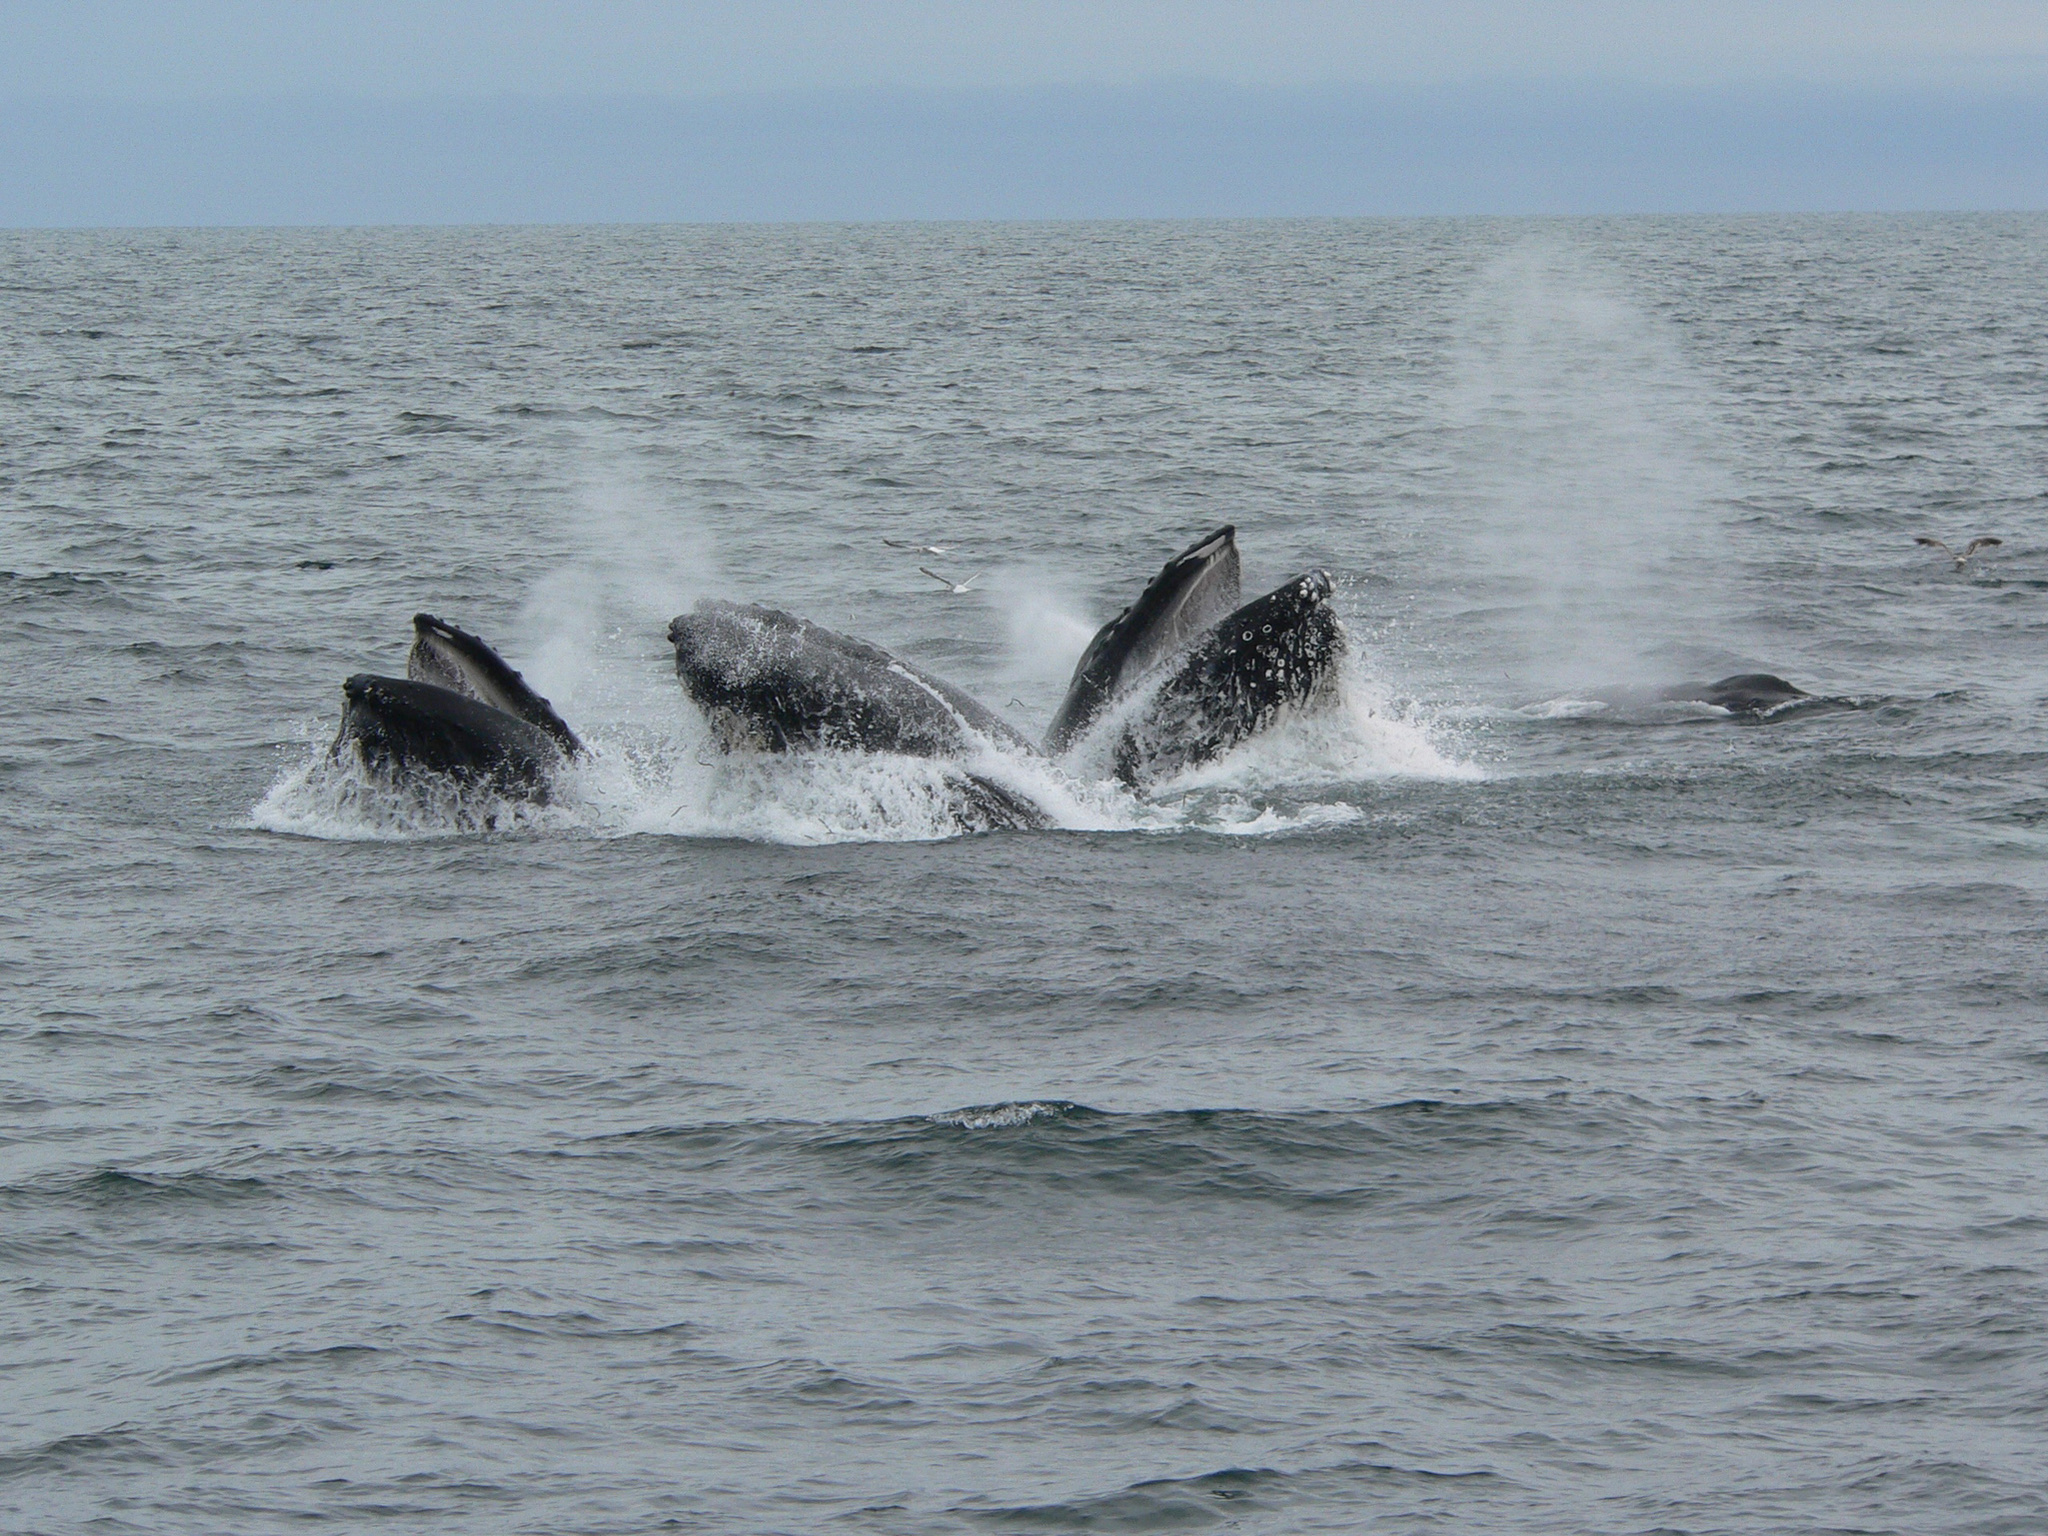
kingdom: Animalia
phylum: Chordata
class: Mammalia
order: Cetacea
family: Balaenopteridae
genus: Megaptera
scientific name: Megaptera novaeangliae
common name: Humpback whale
